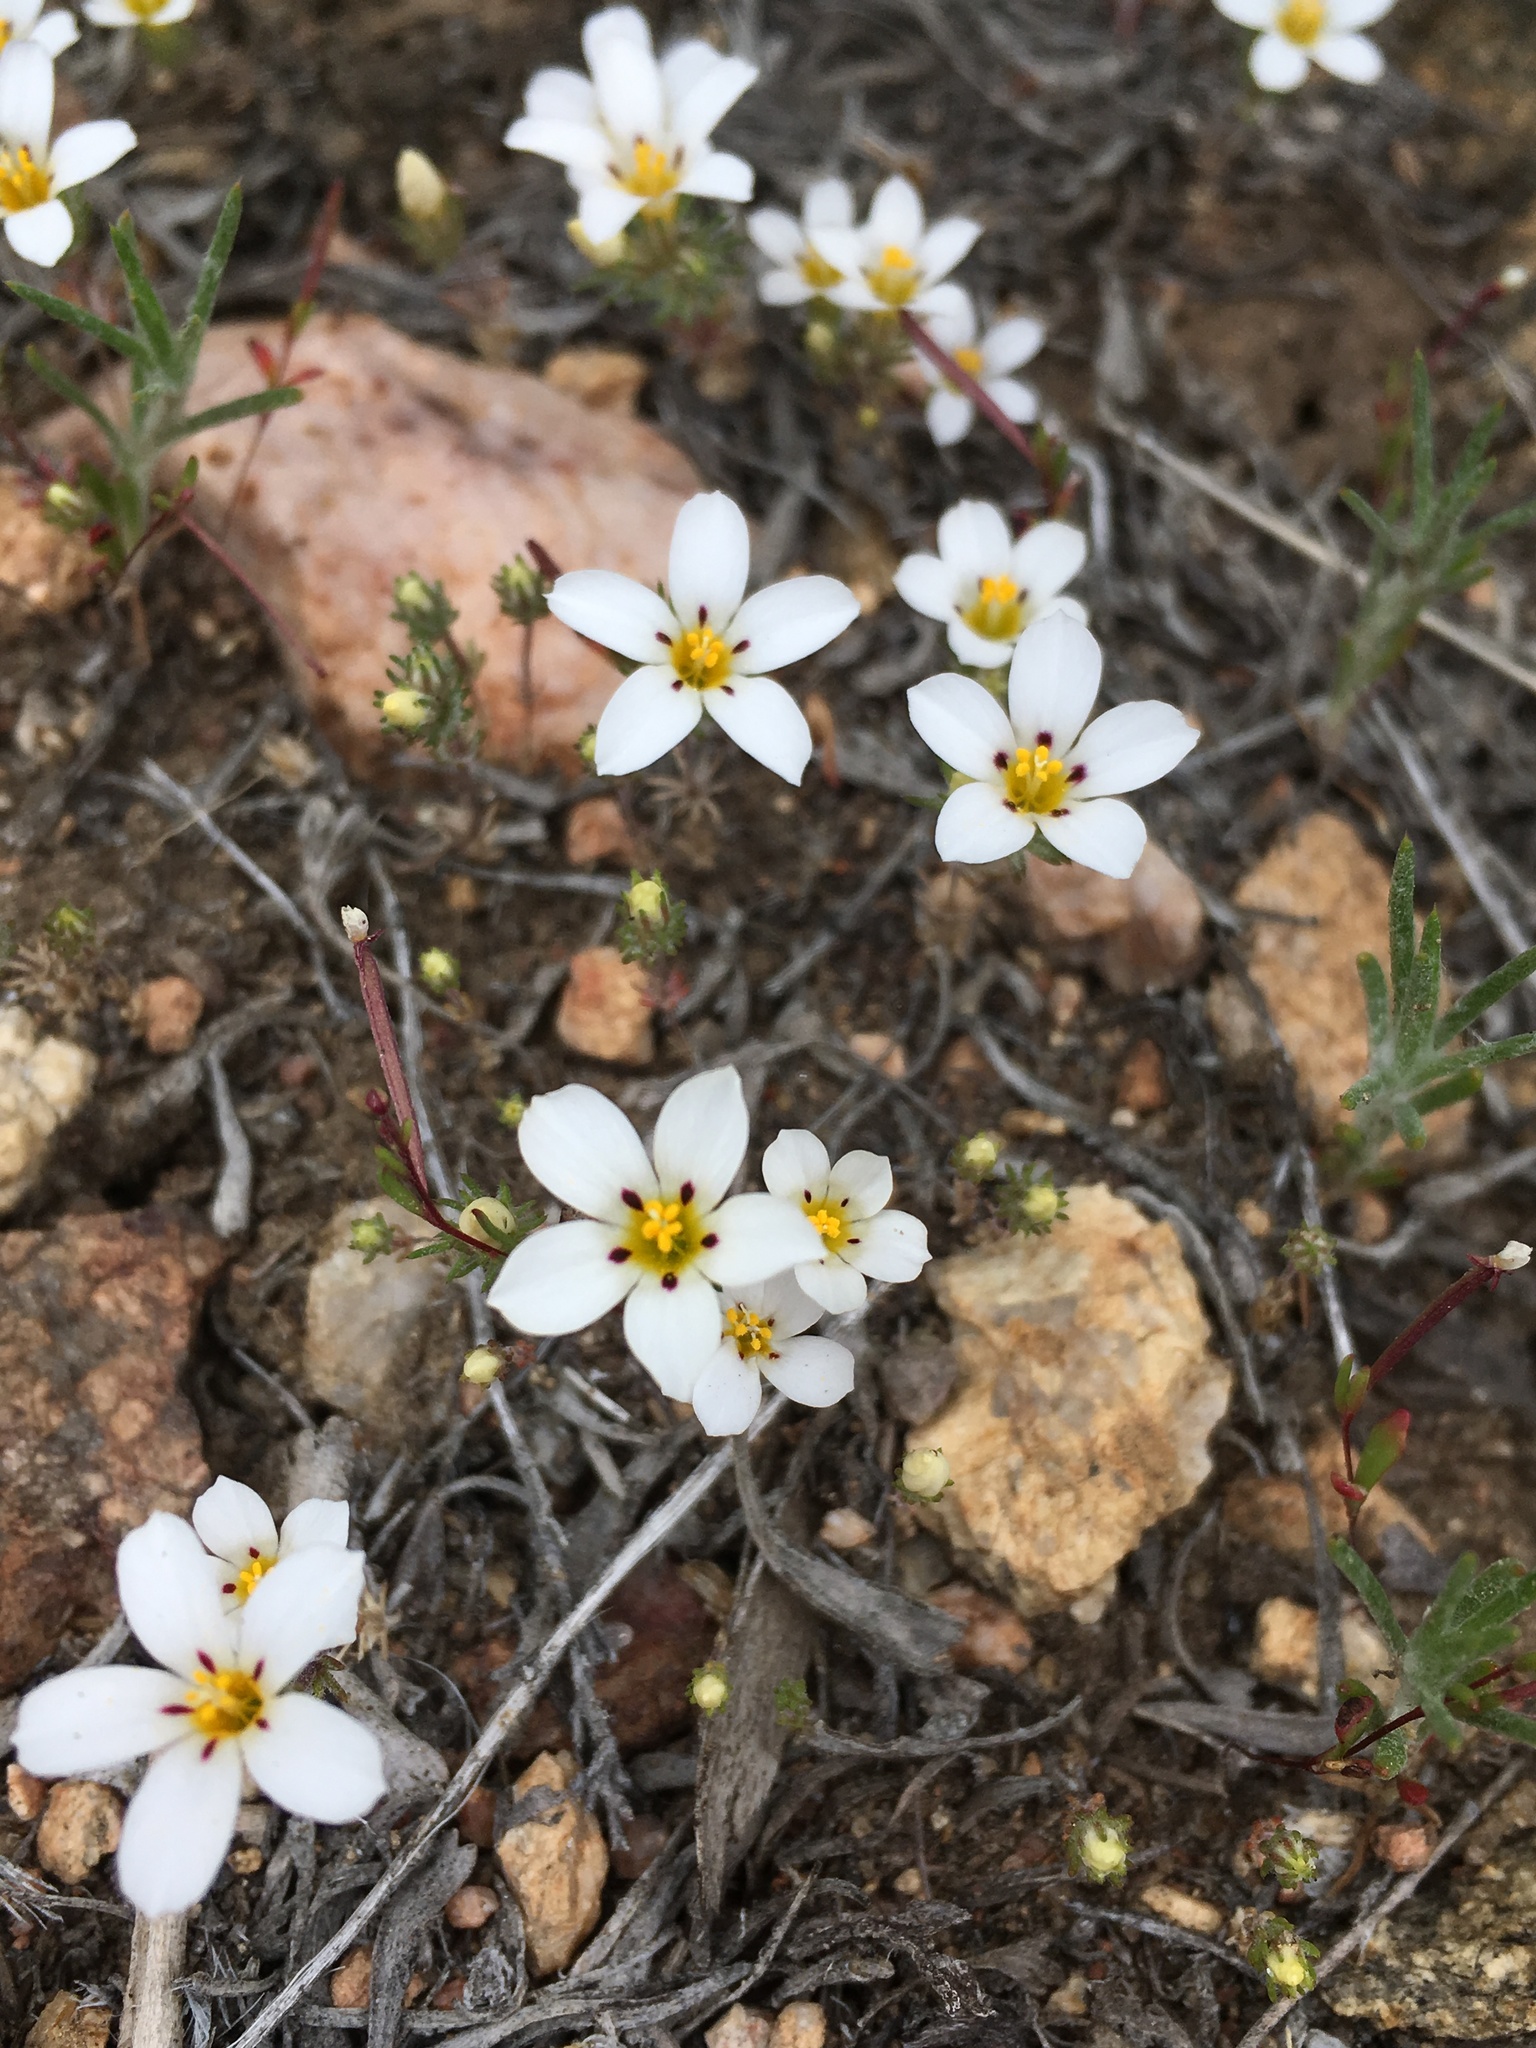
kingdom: Plantae
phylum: Tracheophyta
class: Magnoliopsida
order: Ericales
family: Polemoniaceae
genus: Linanthus
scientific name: Linanthus killipii
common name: Baldwin lake linanthus
